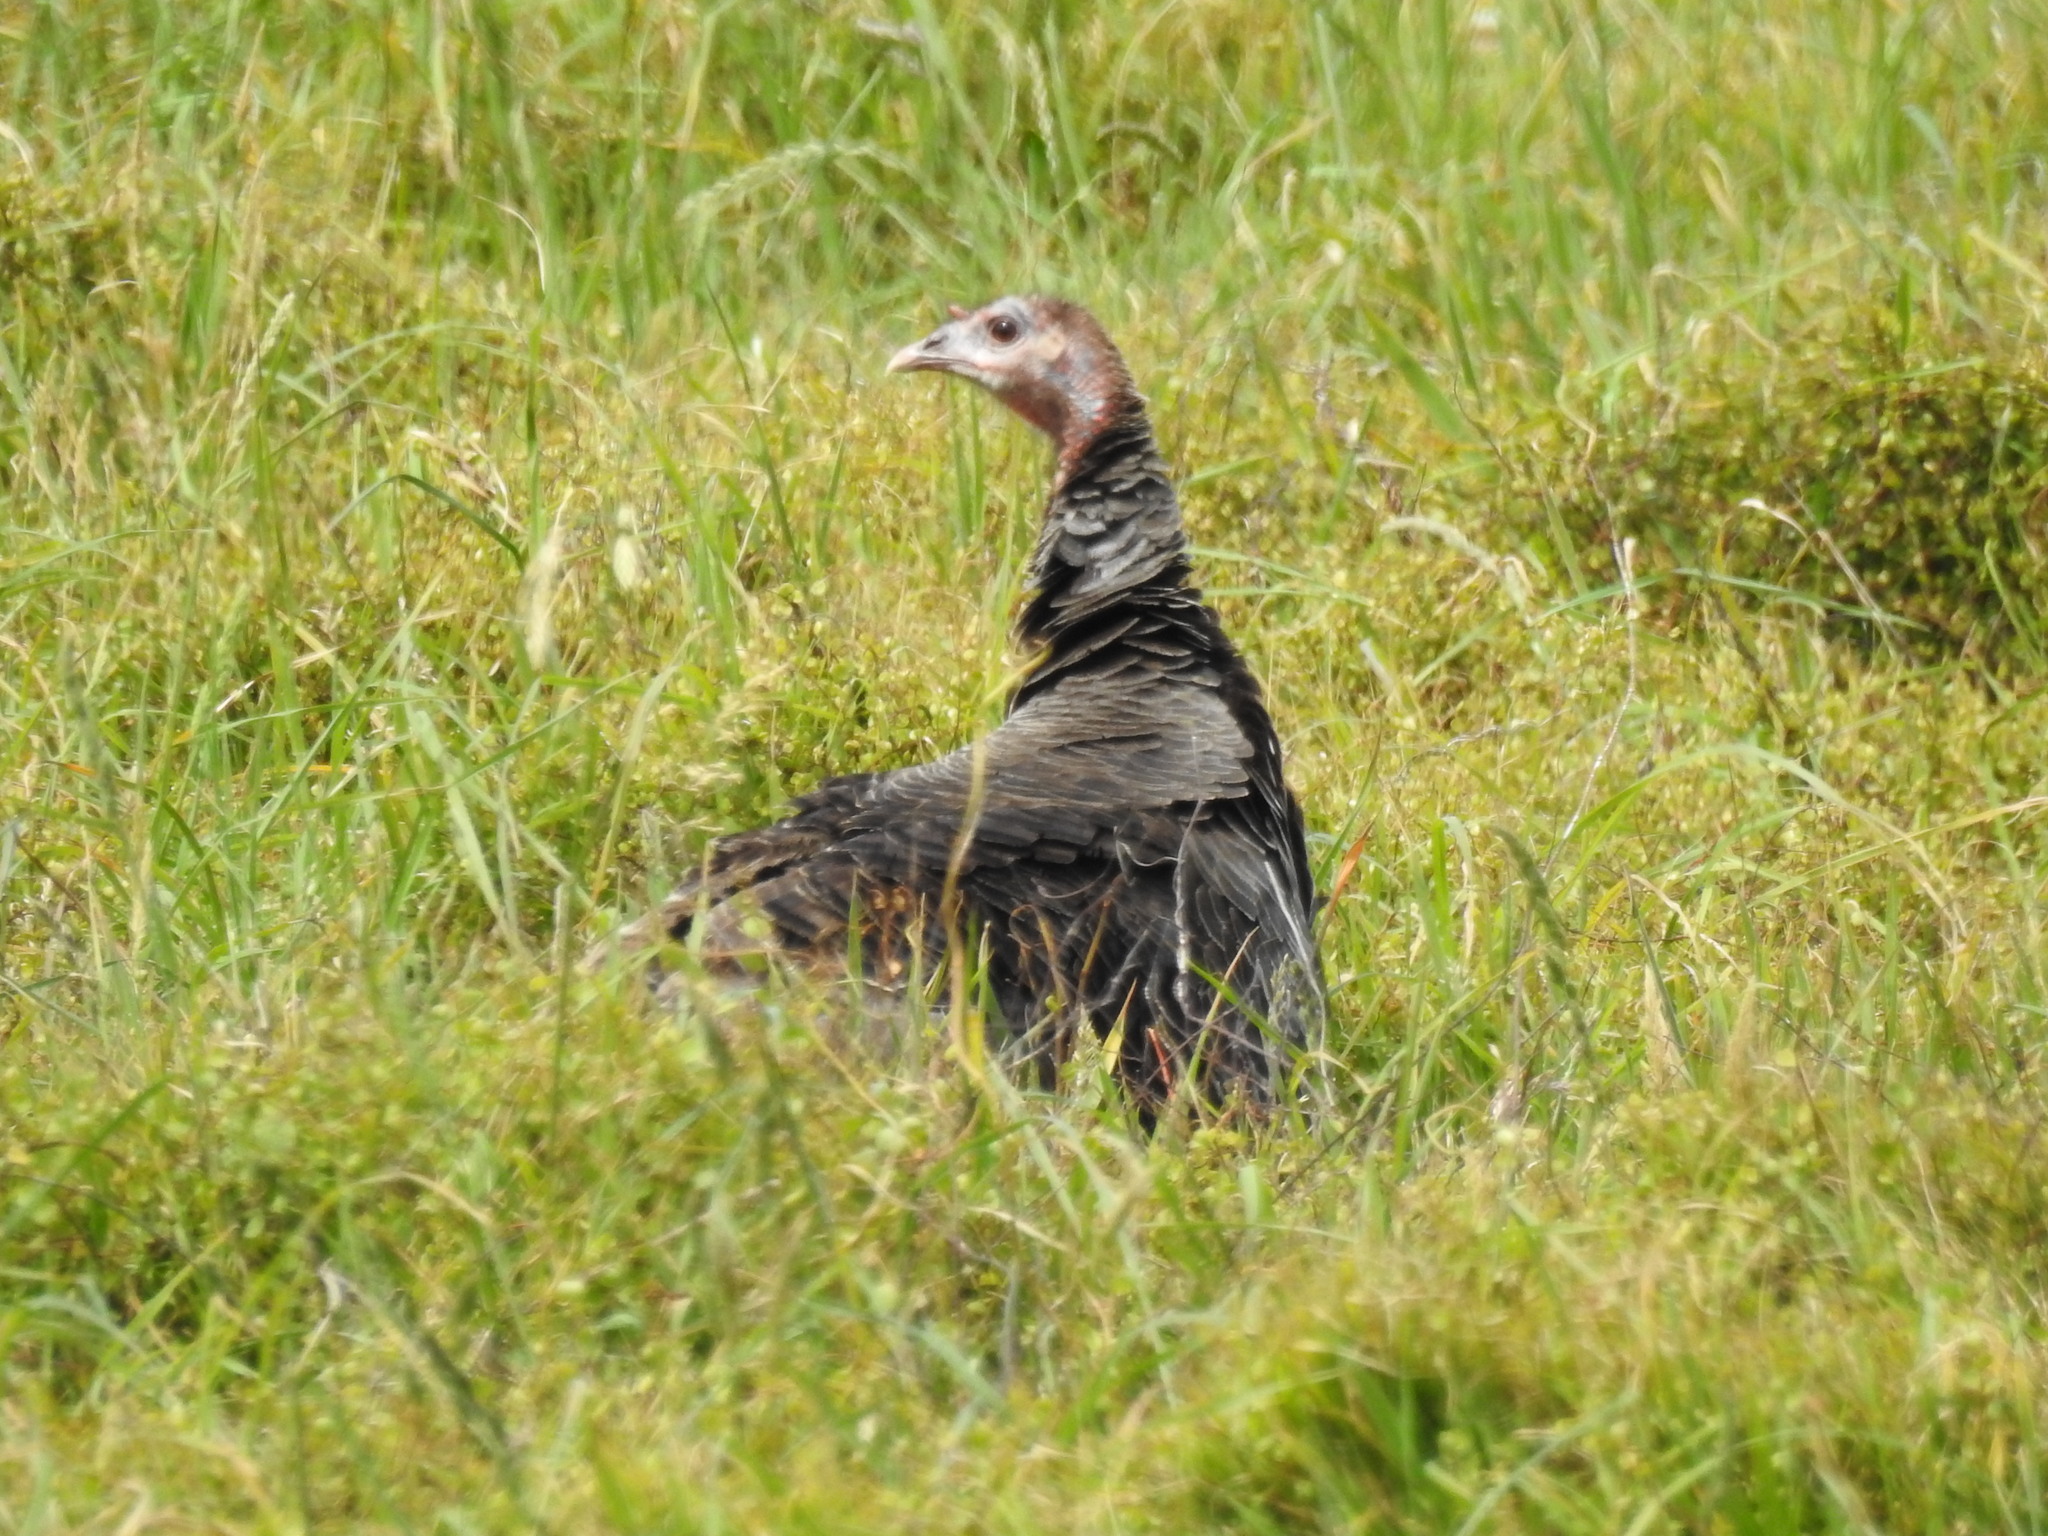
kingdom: Animalia
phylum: Chordata
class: Aves
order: Galliformes
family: Phasianidae
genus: Meleagris
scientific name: Meleagris gallopavo
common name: Wild turkey
